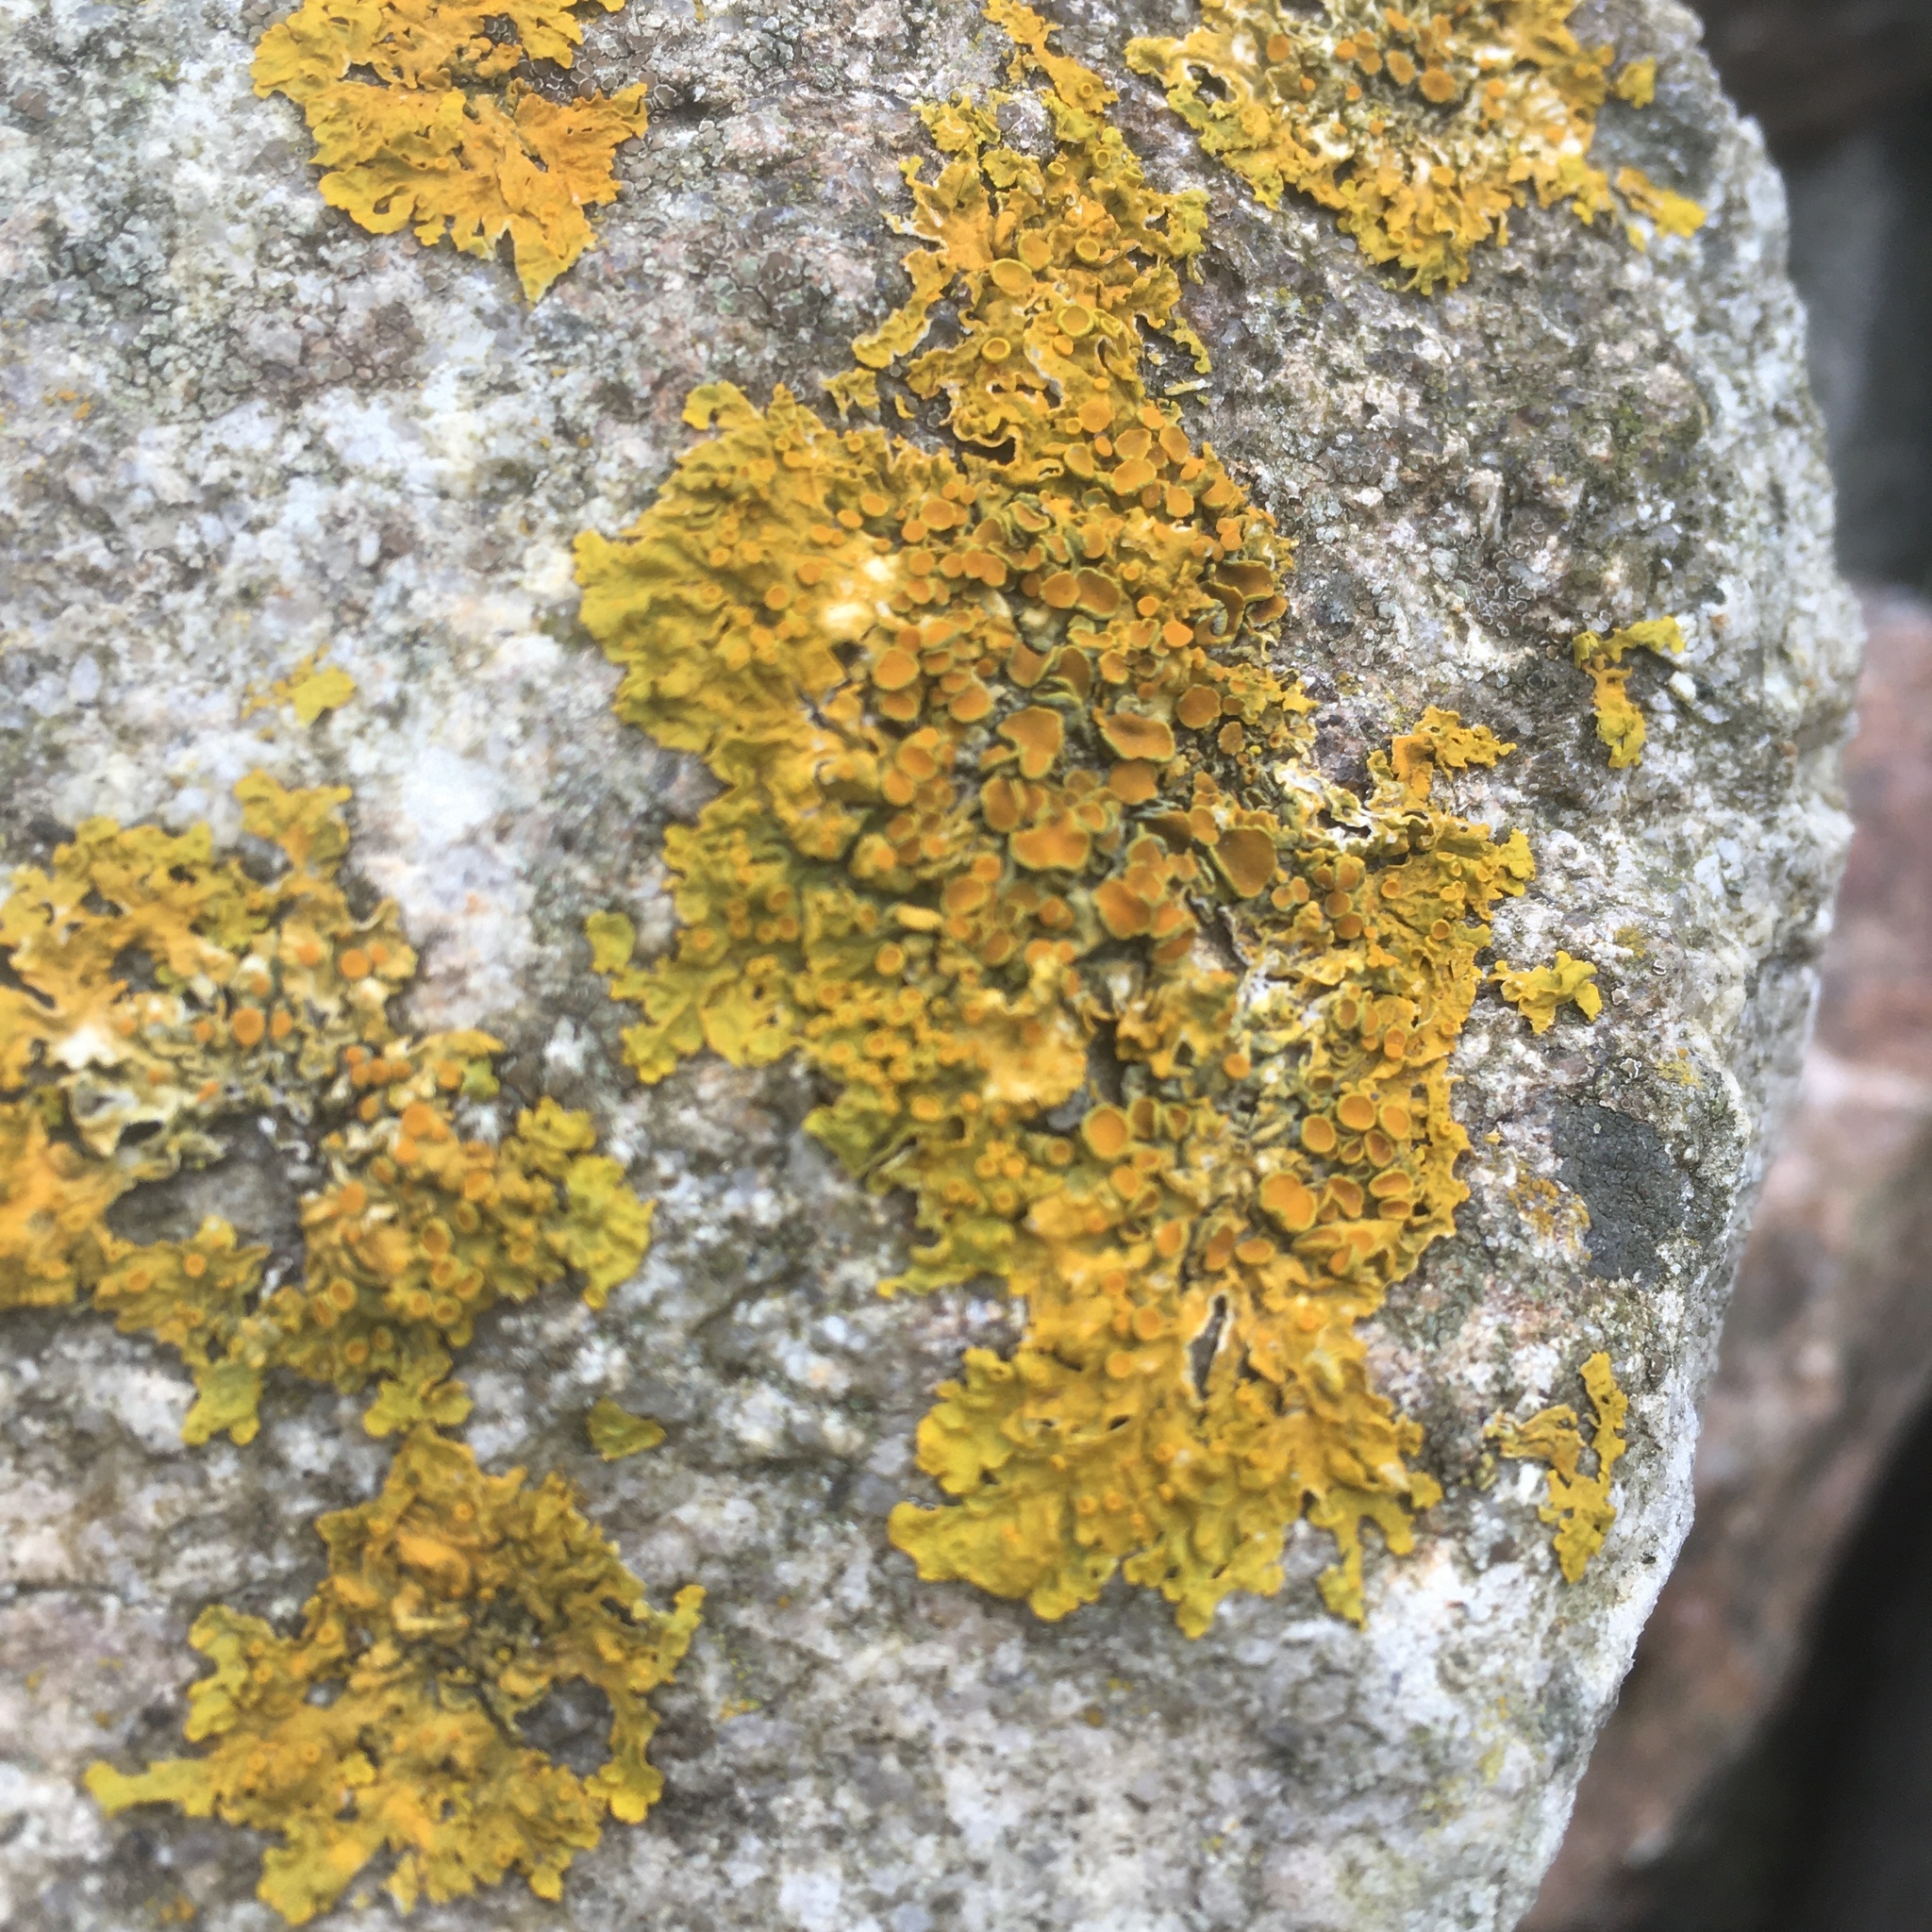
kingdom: Fungi
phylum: Ascomycota
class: Lecanoromycetes
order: Teloschistales
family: Teloschistaceae
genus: Xanthoria
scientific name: Xanthoria parietina
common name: Common orange lichen
